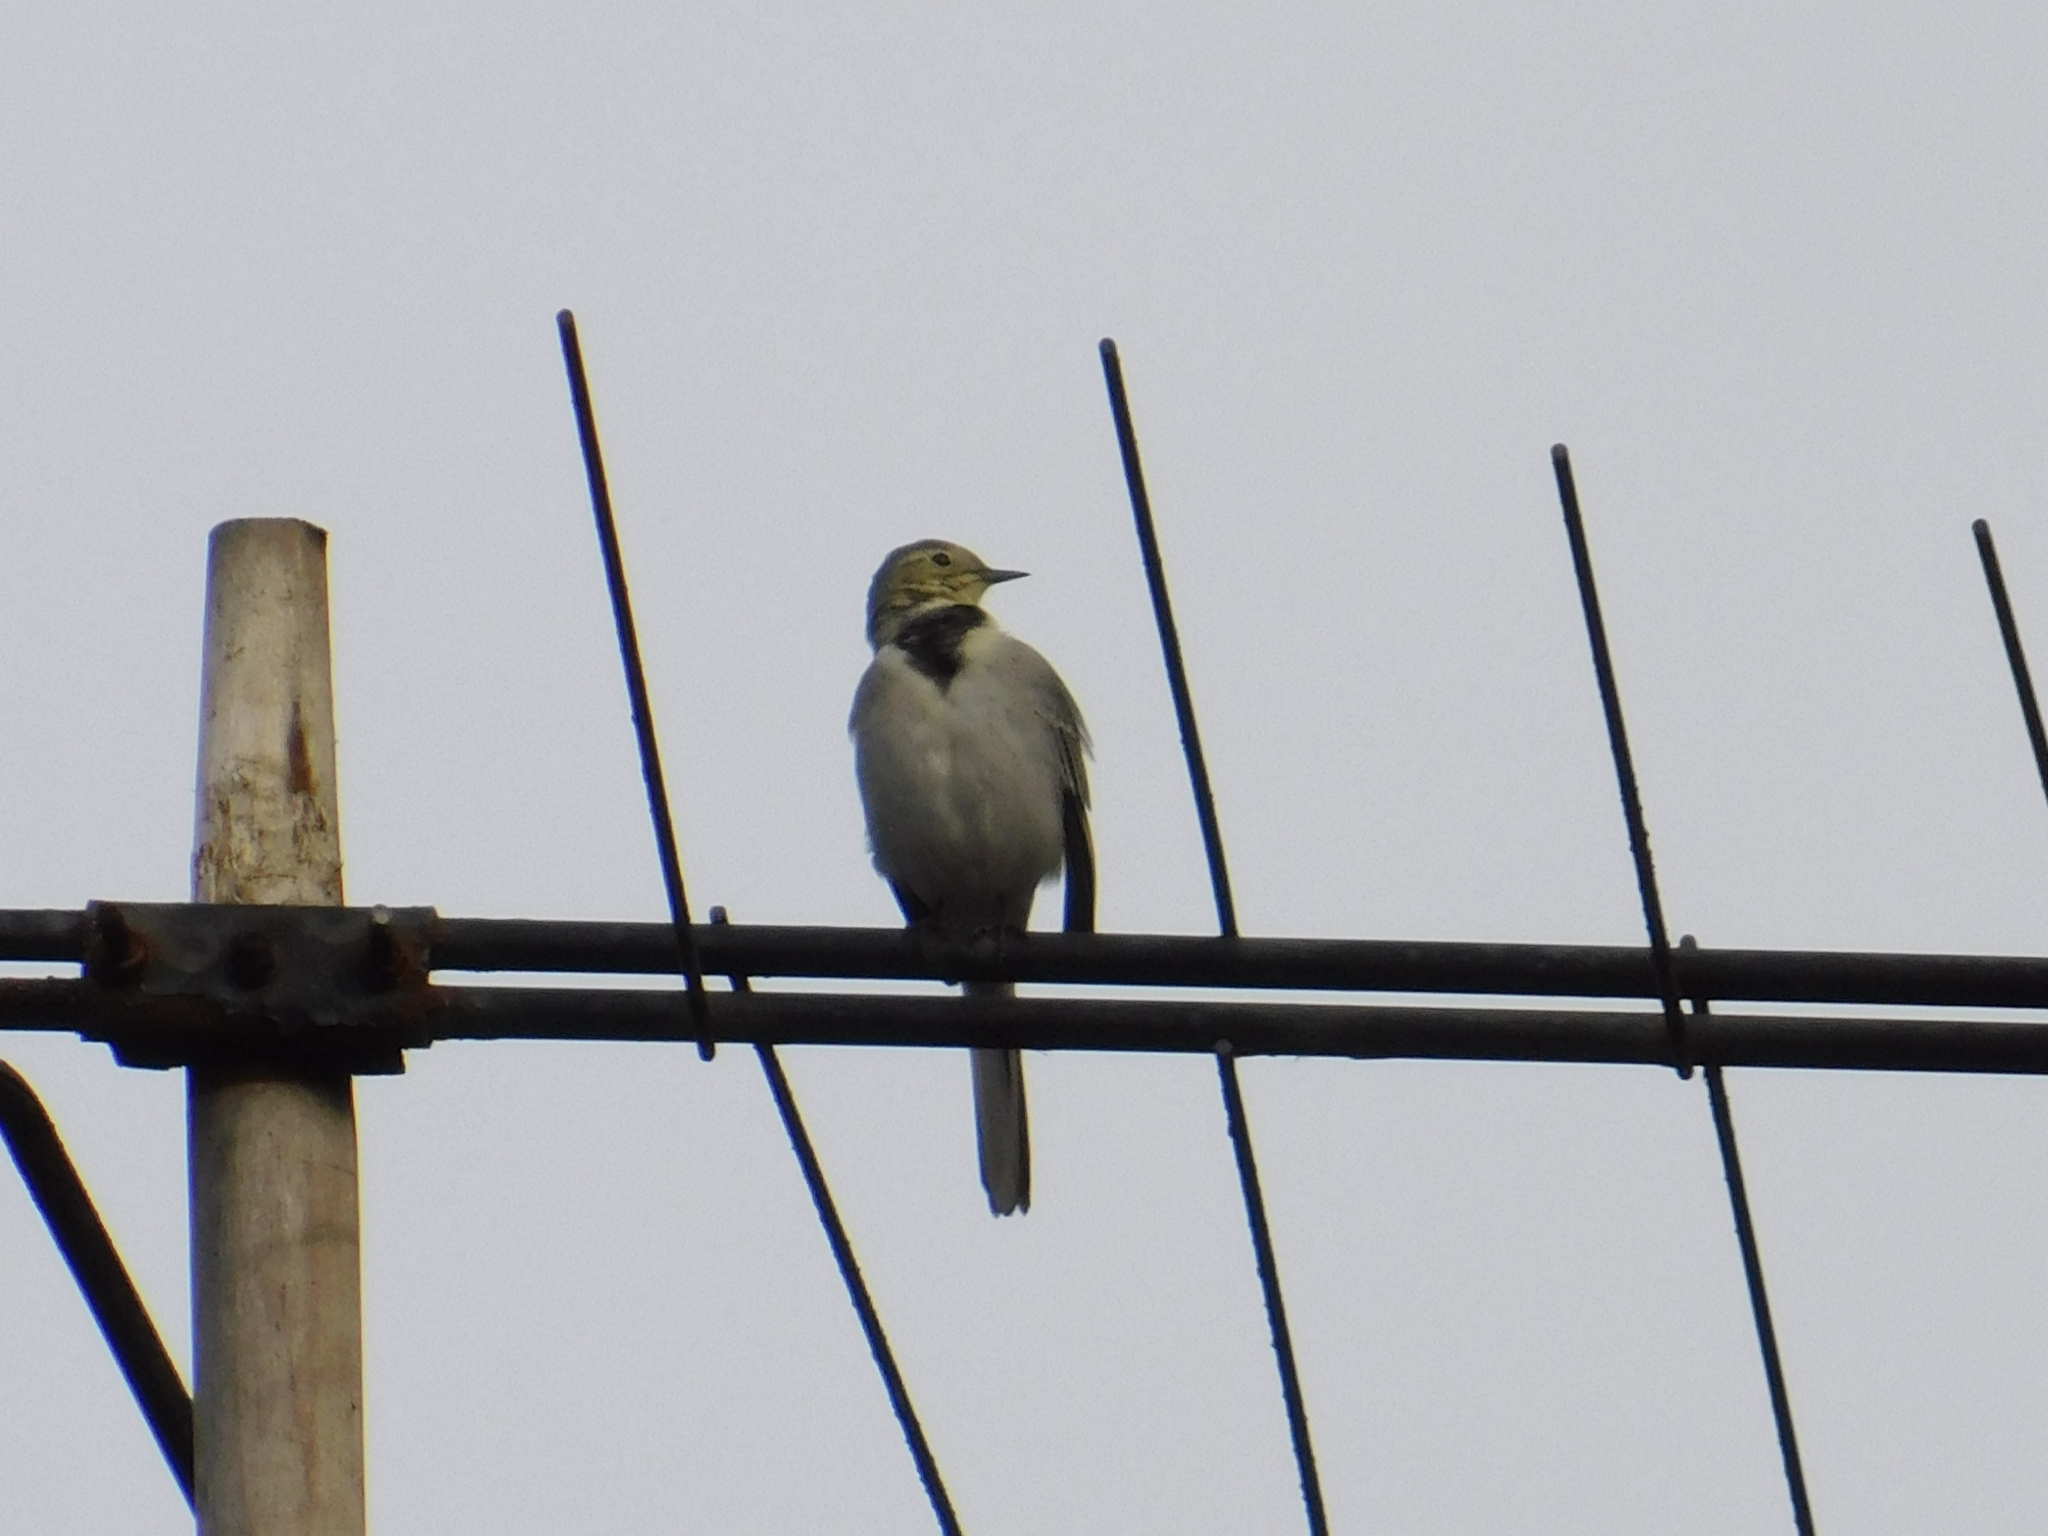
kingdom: Animalia
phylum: Chordata
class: Aves
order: Passeriformes
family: Motacillidae
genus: Motacilla
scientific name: Motacilla alba
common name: White wagtail
